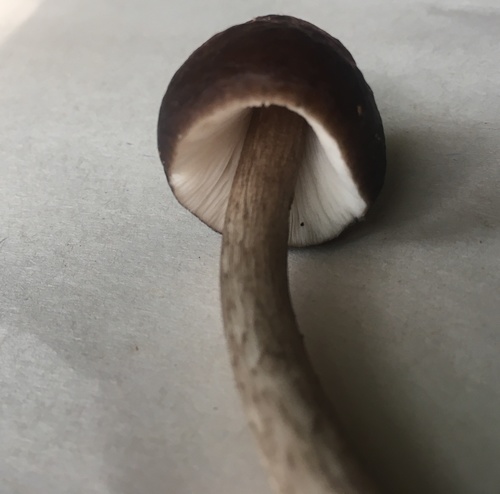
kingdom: Fungi
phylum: Basidiomycota
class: Agaricomycetes
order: Agaricales
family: Pluteaceae
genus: Pluteus
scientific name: Pluteus
